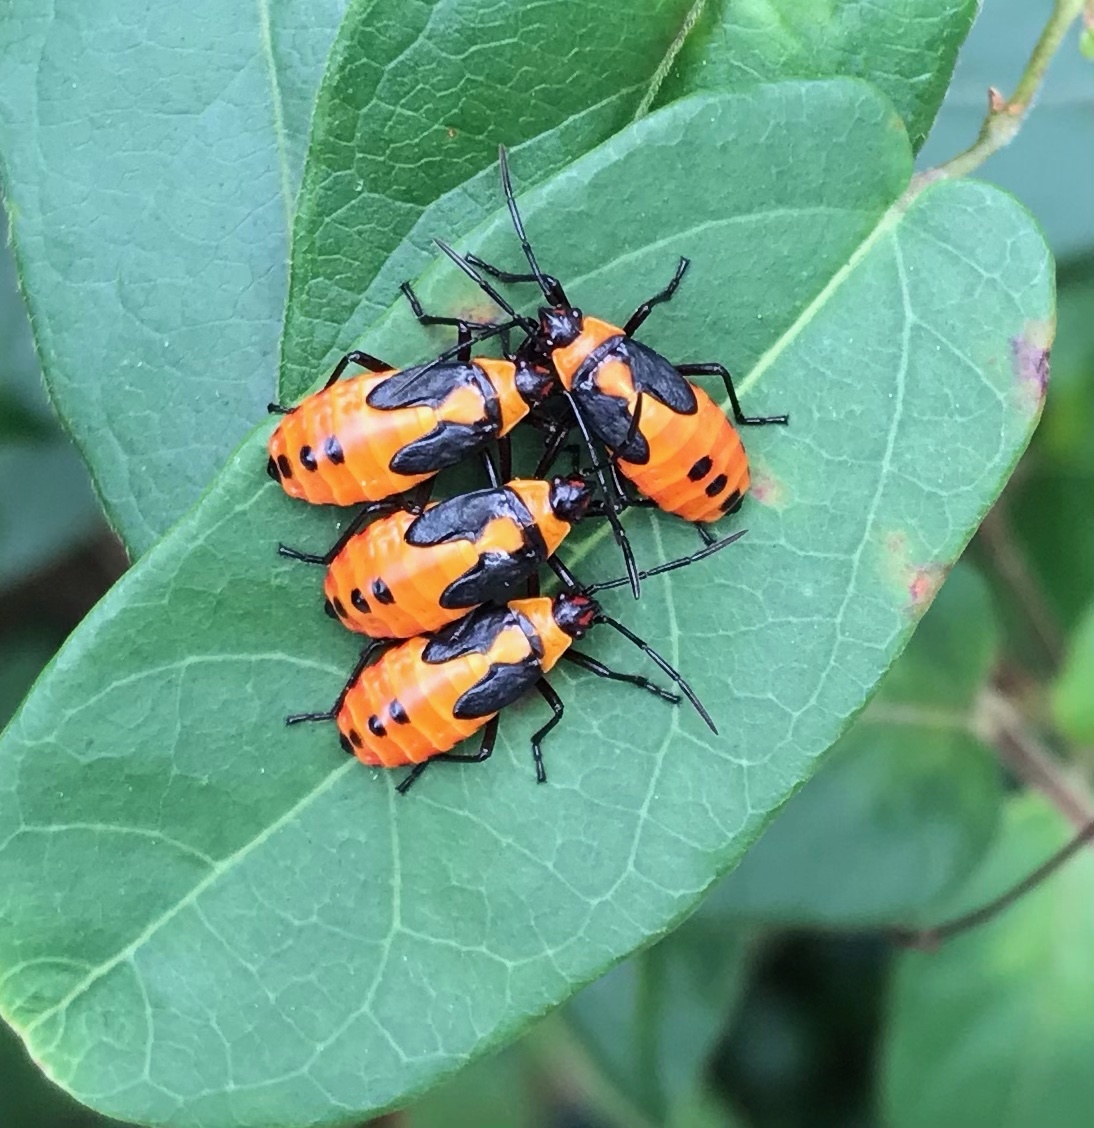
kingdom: Animalia
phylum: Arthropoda
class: Insecta
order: Hemiptera
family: Lygaeidae
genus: Oncopeltus
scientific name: Oncopeltus fasciatus
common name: Large milkweed bug
